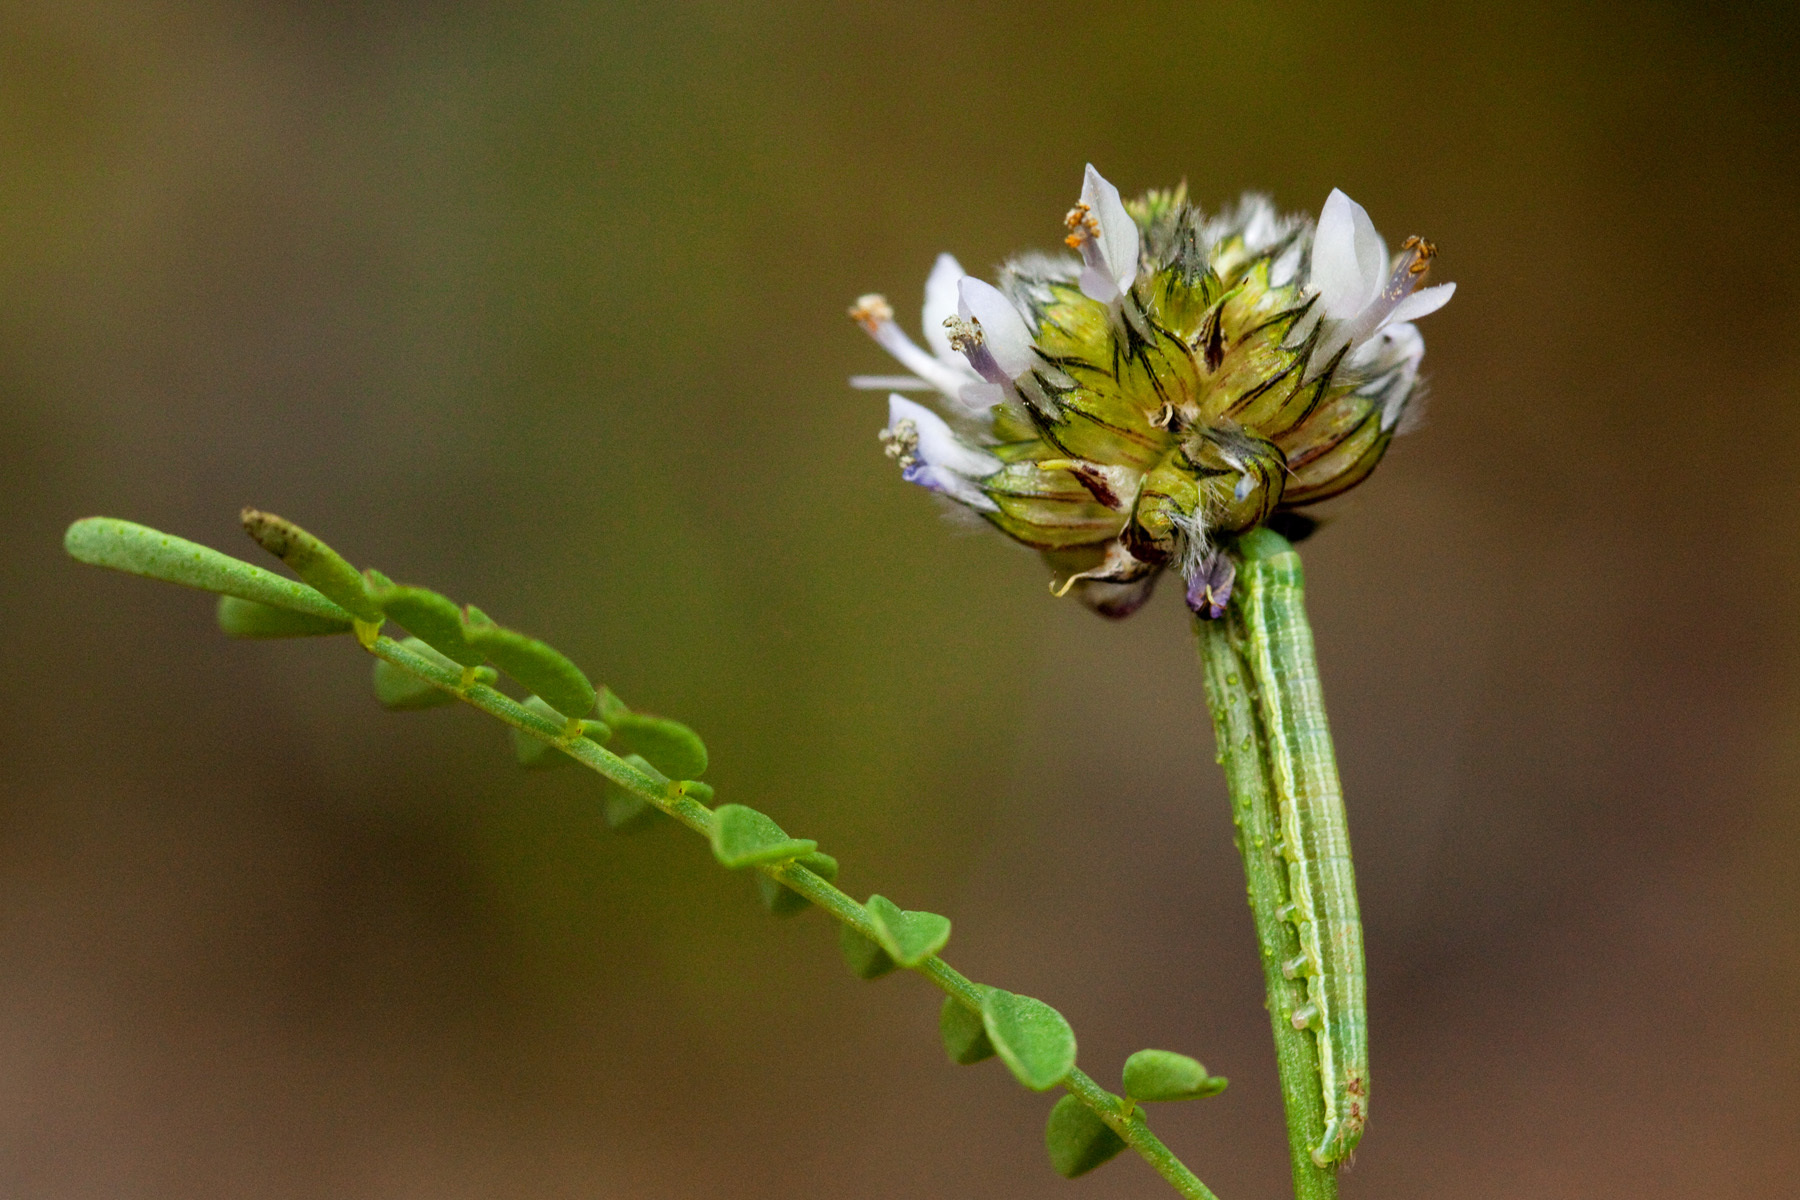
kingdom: Plantae
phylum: Tracheophyta
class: Magnoliopsida
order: Fabales
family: Fabaceae
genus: Dalea
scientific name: Dalea urceolata
